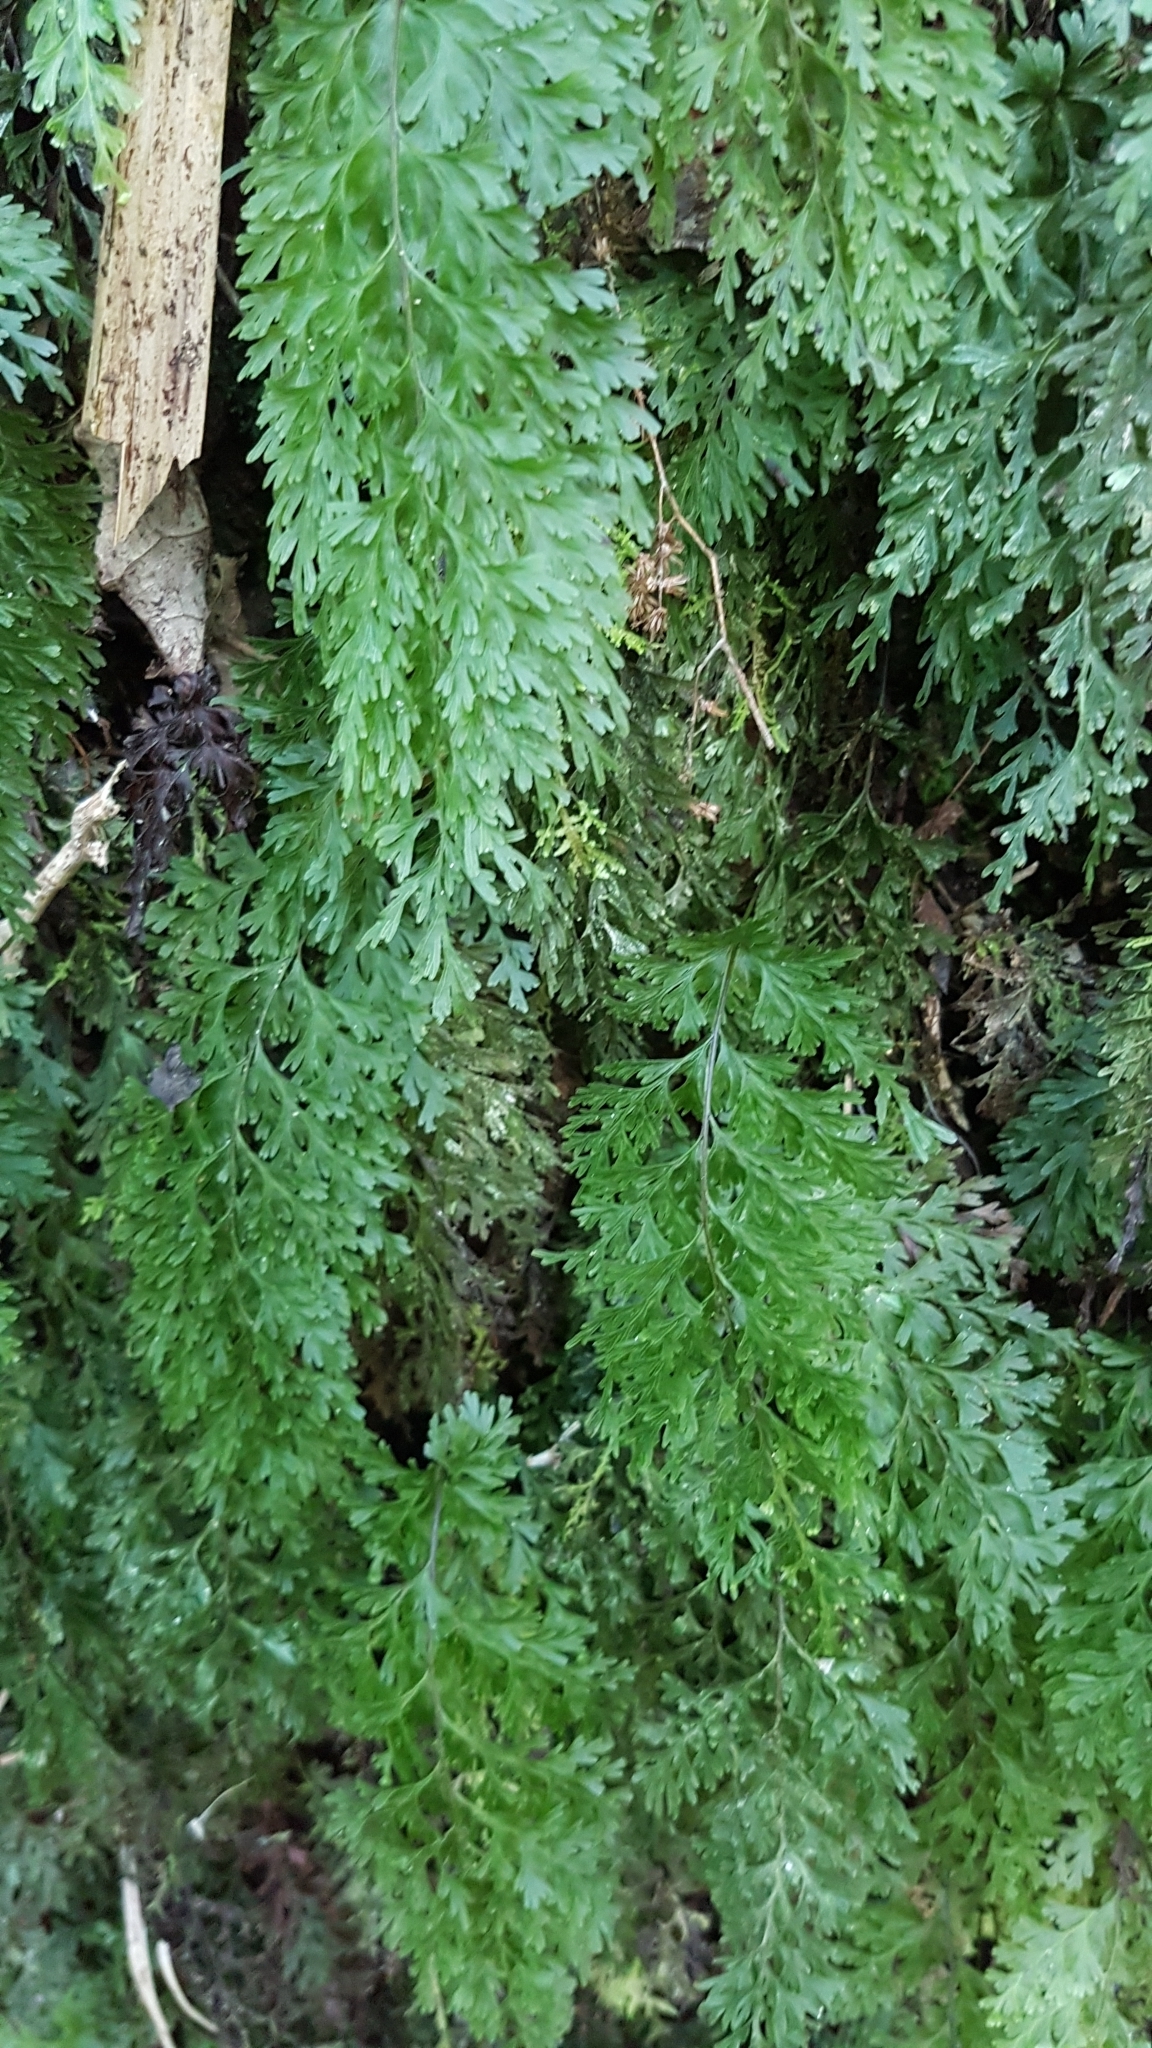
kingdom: Plantae
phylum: Tracheophyta
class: Polypodiopsida
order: Hymenophyllales
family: Hymenophyllaceae
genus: Hymenophyllum
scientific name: Hymenophyllum demissum
